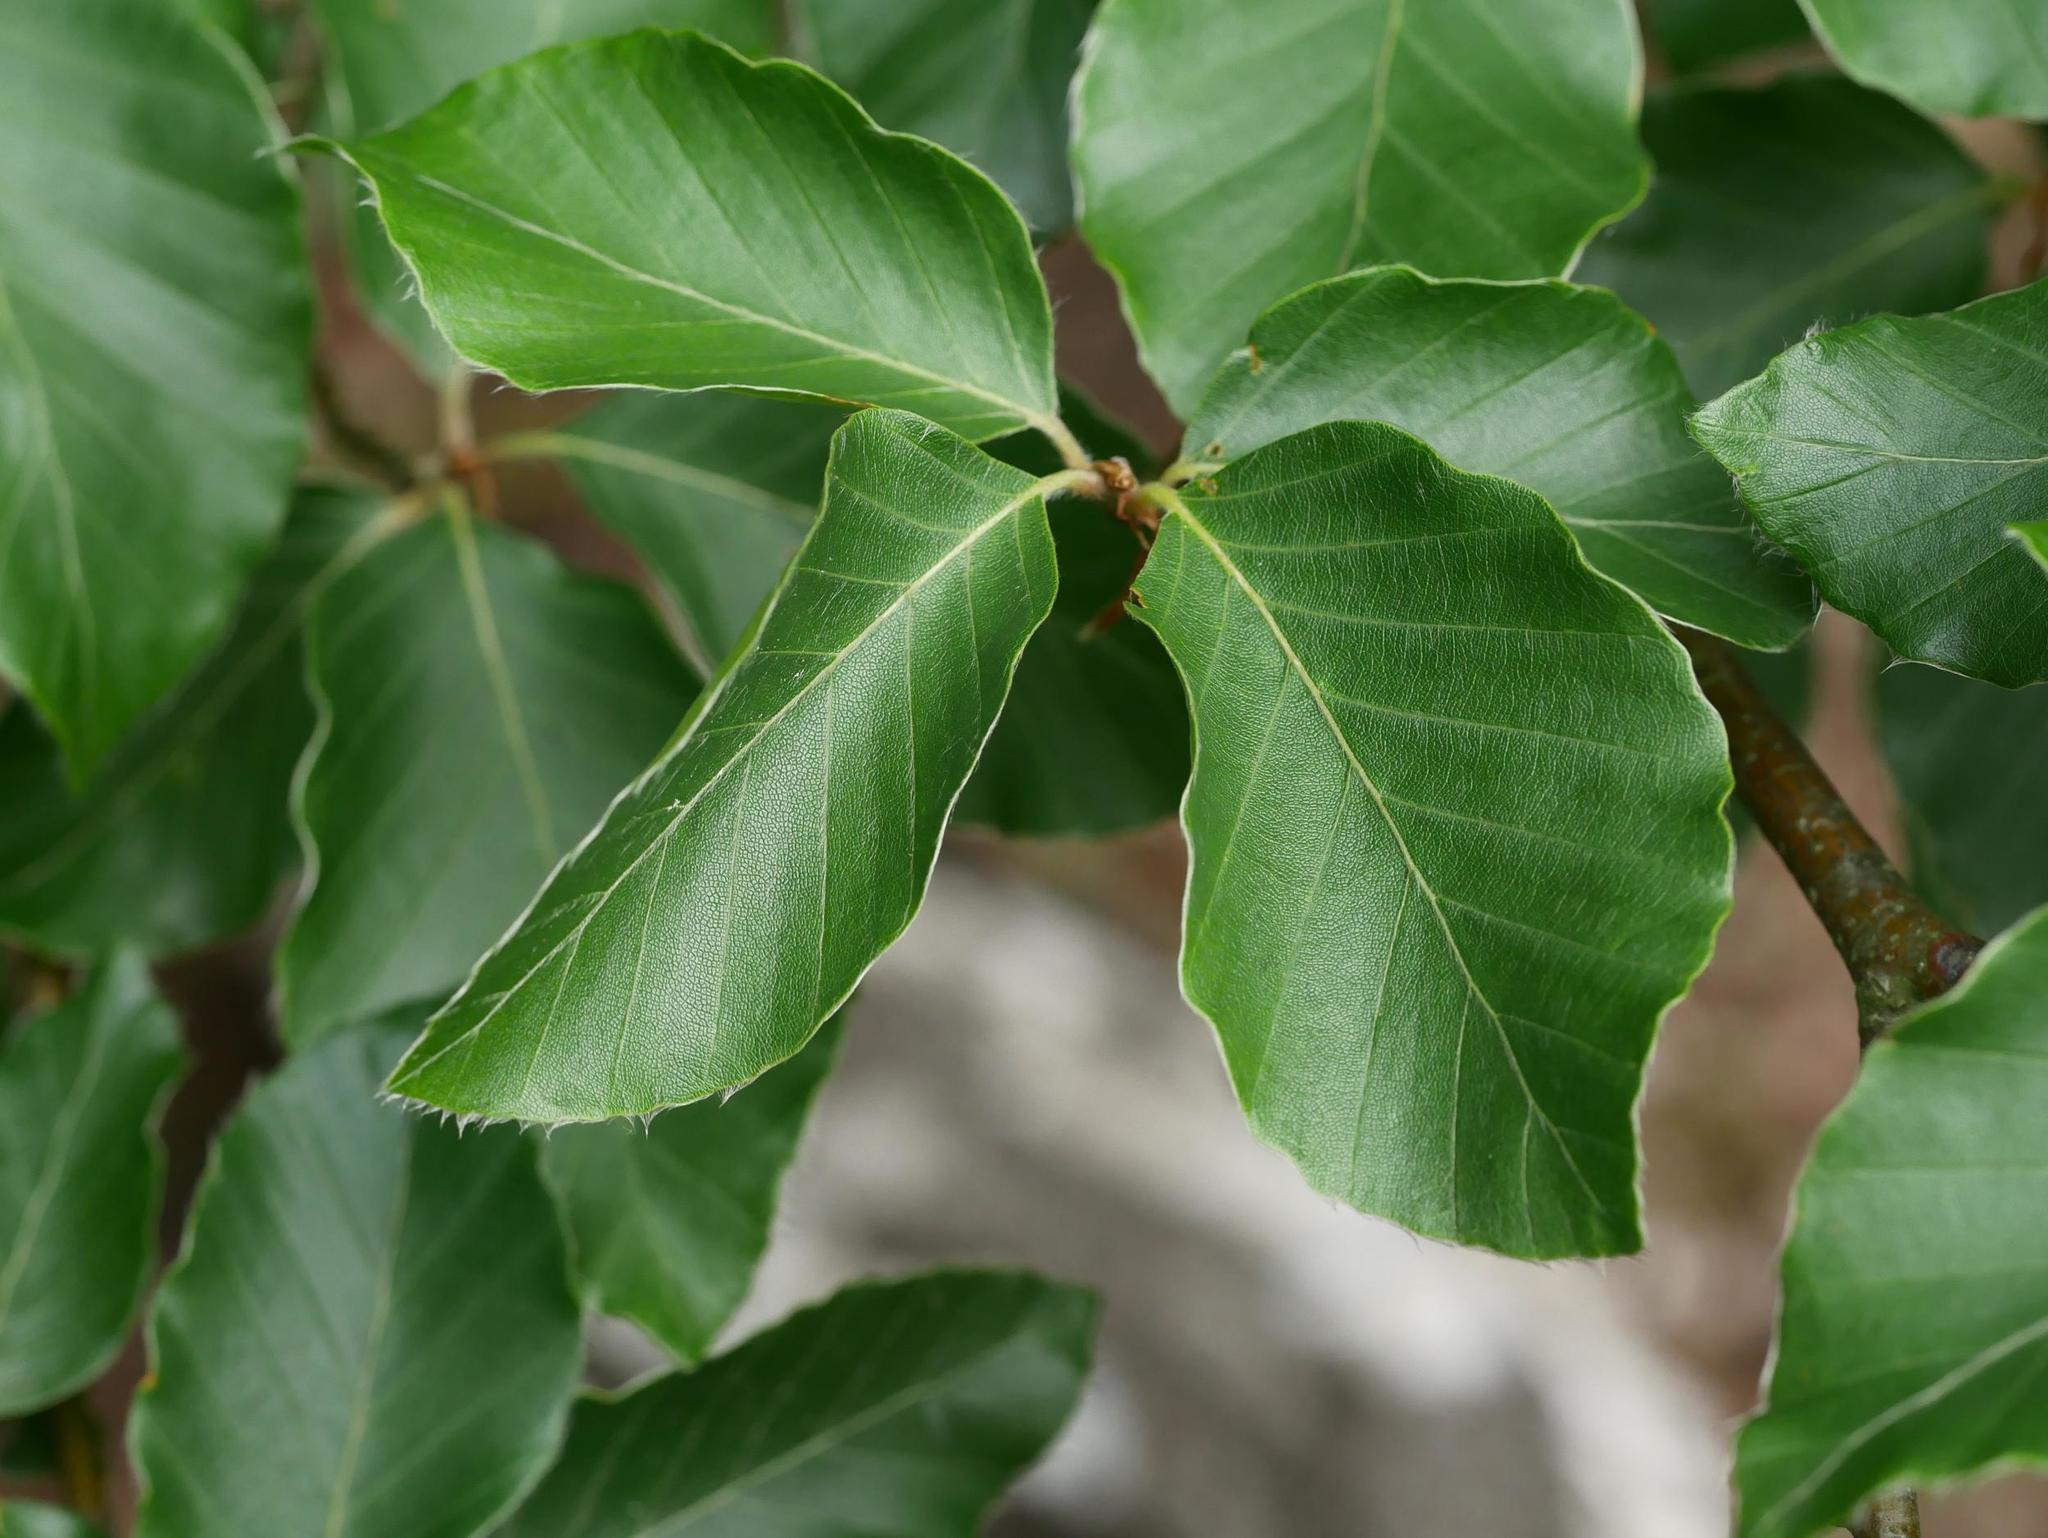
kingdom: Plantae
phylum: Tracheophyta
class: Magnoliopsida
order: Fagales
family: Fagaceae
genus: Fagus
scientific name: Fagus sylvatica
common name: Beech
